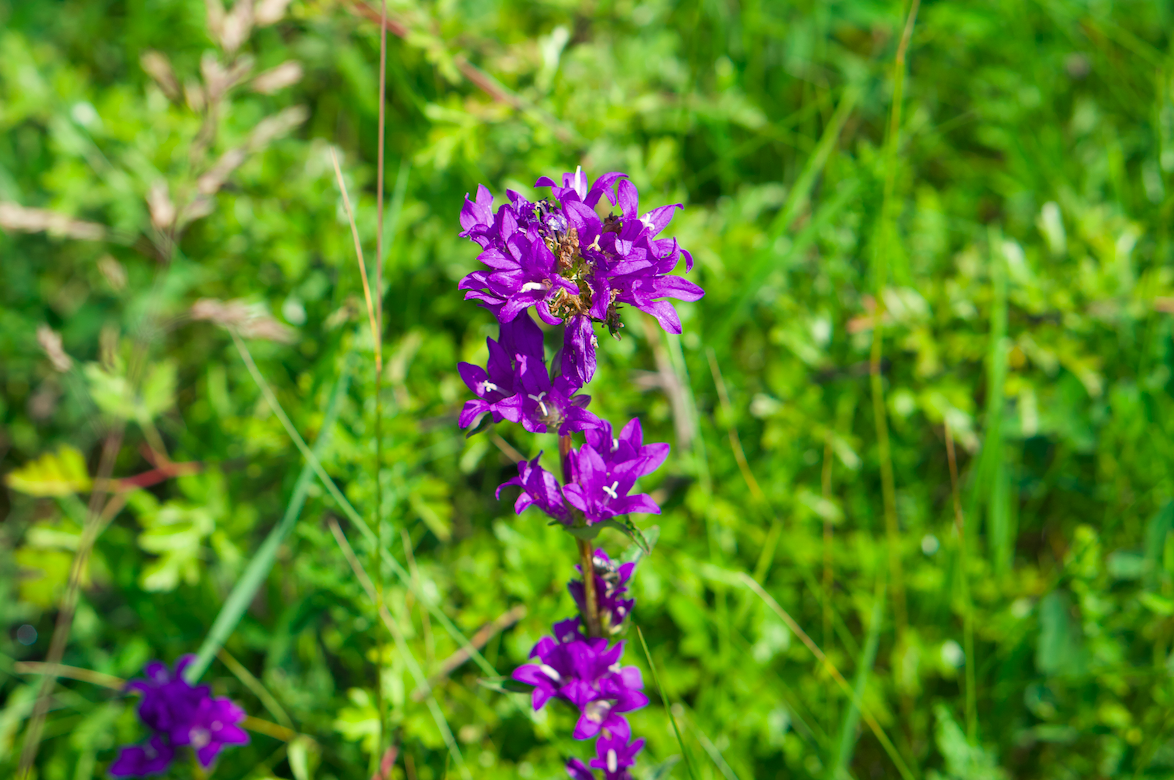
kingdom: Plantae
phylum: Tracheophyta
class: Magnoliopsida
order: Asterales
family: Campanulaceae
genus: Campanula
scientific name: Campanula glomerata
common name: Clustered bellflower
